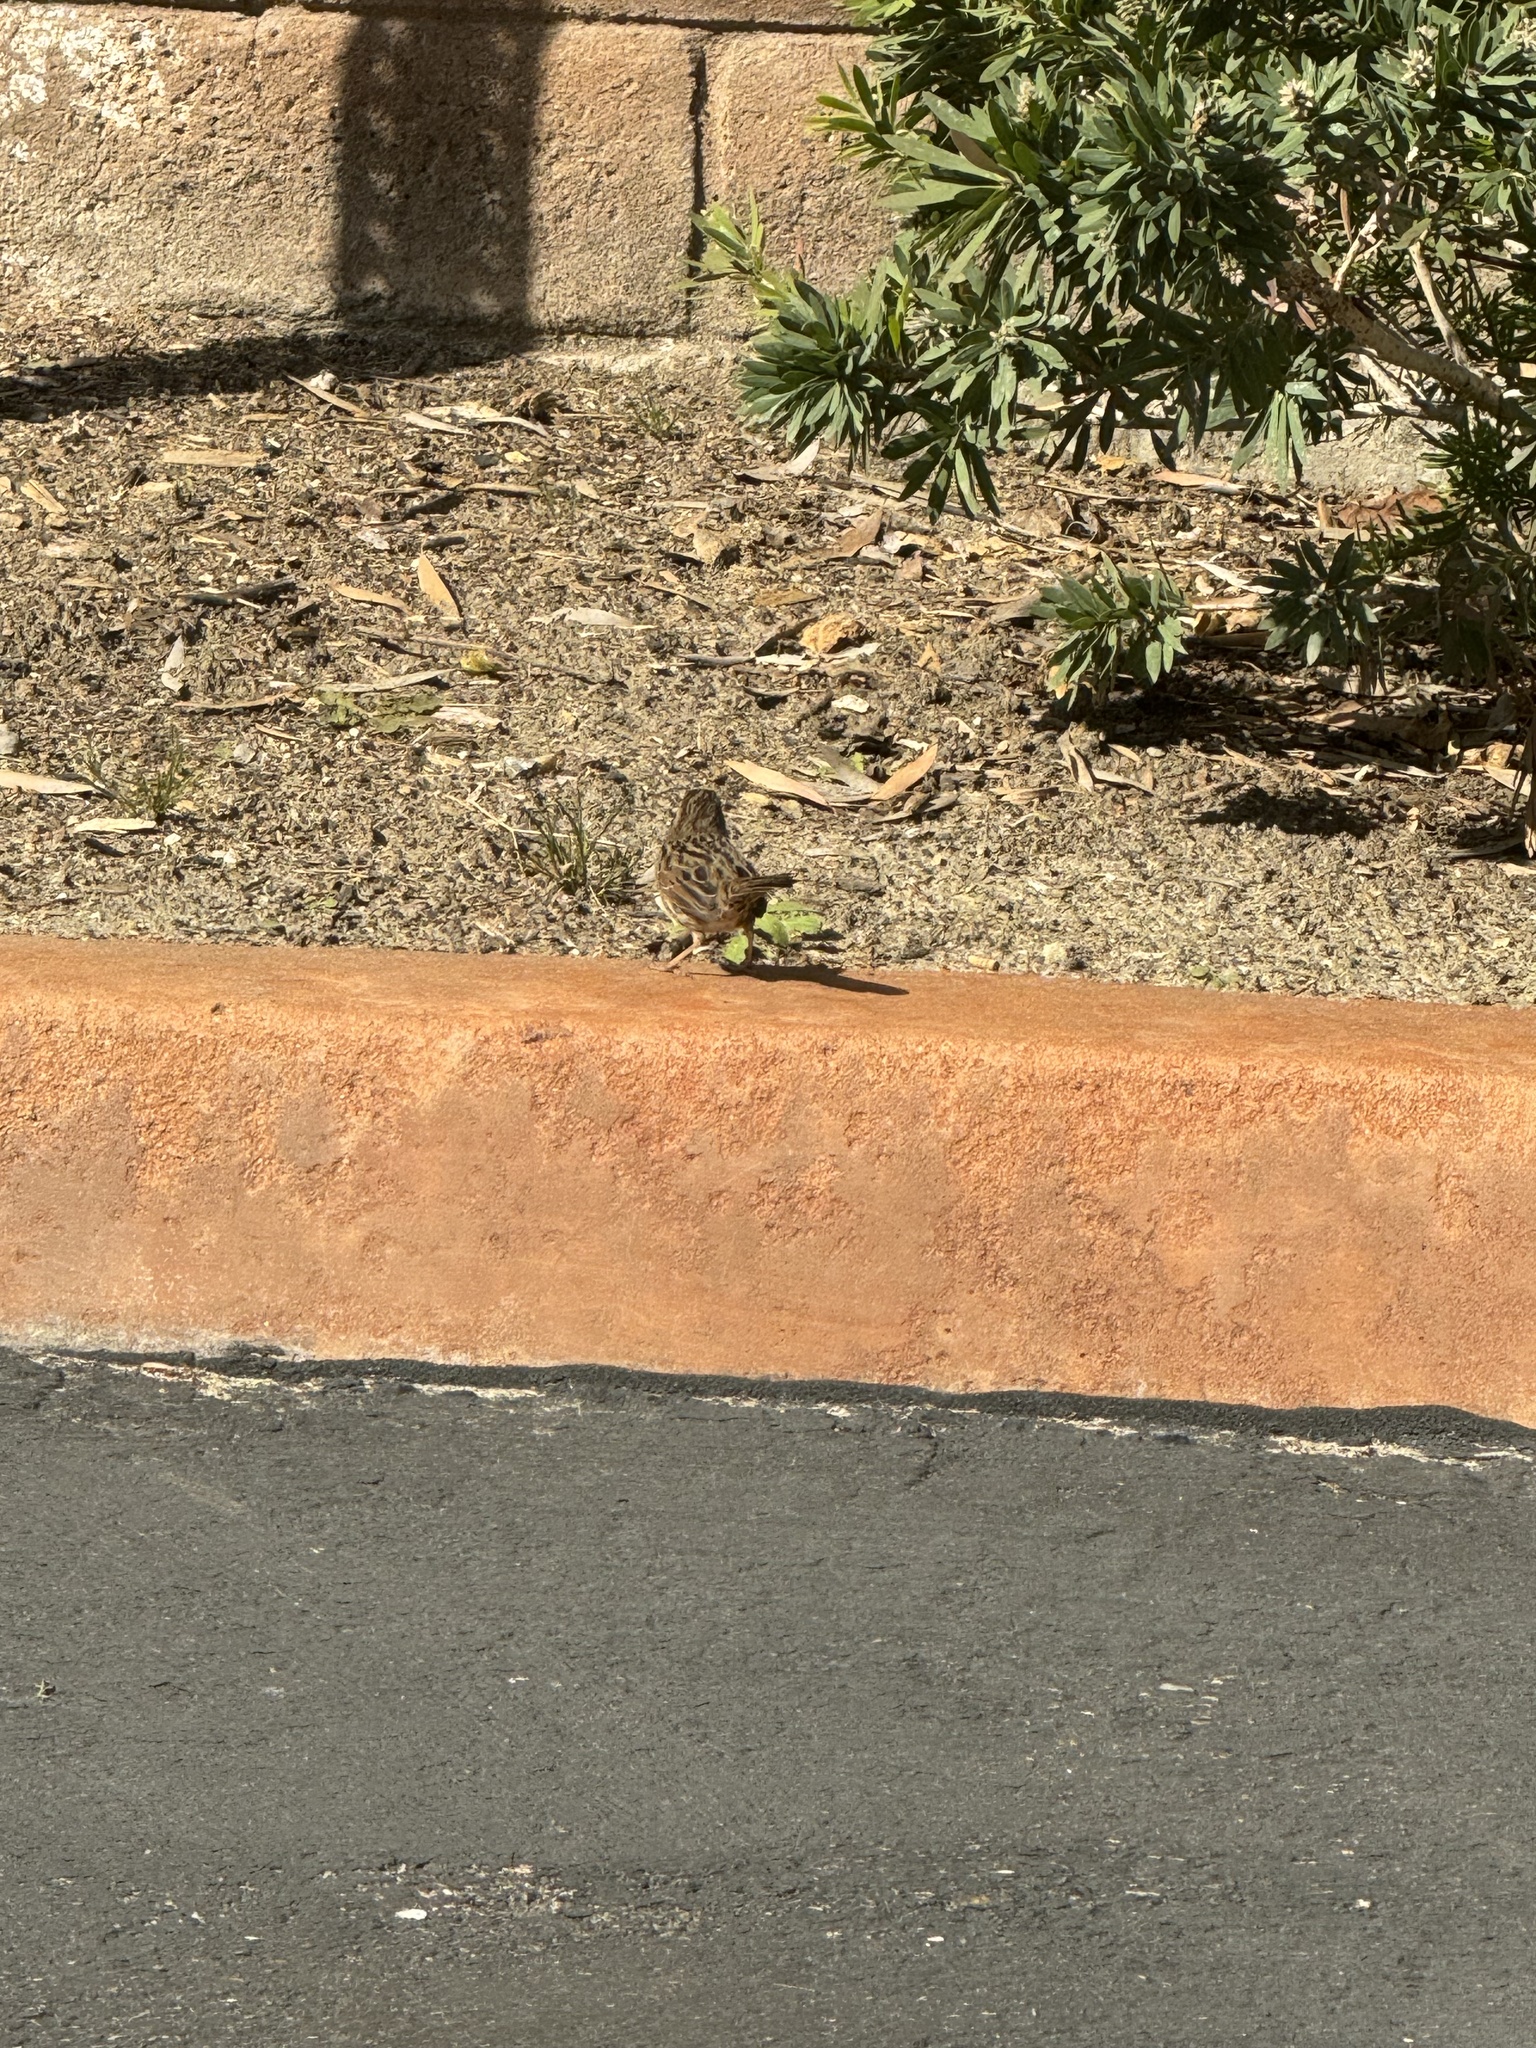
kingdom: Animalia
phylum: Chordata
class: Aves
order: Passeriformes
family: Passerellidae
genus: Melospiza
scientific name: Melospiza melodia
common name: Song sparrow
